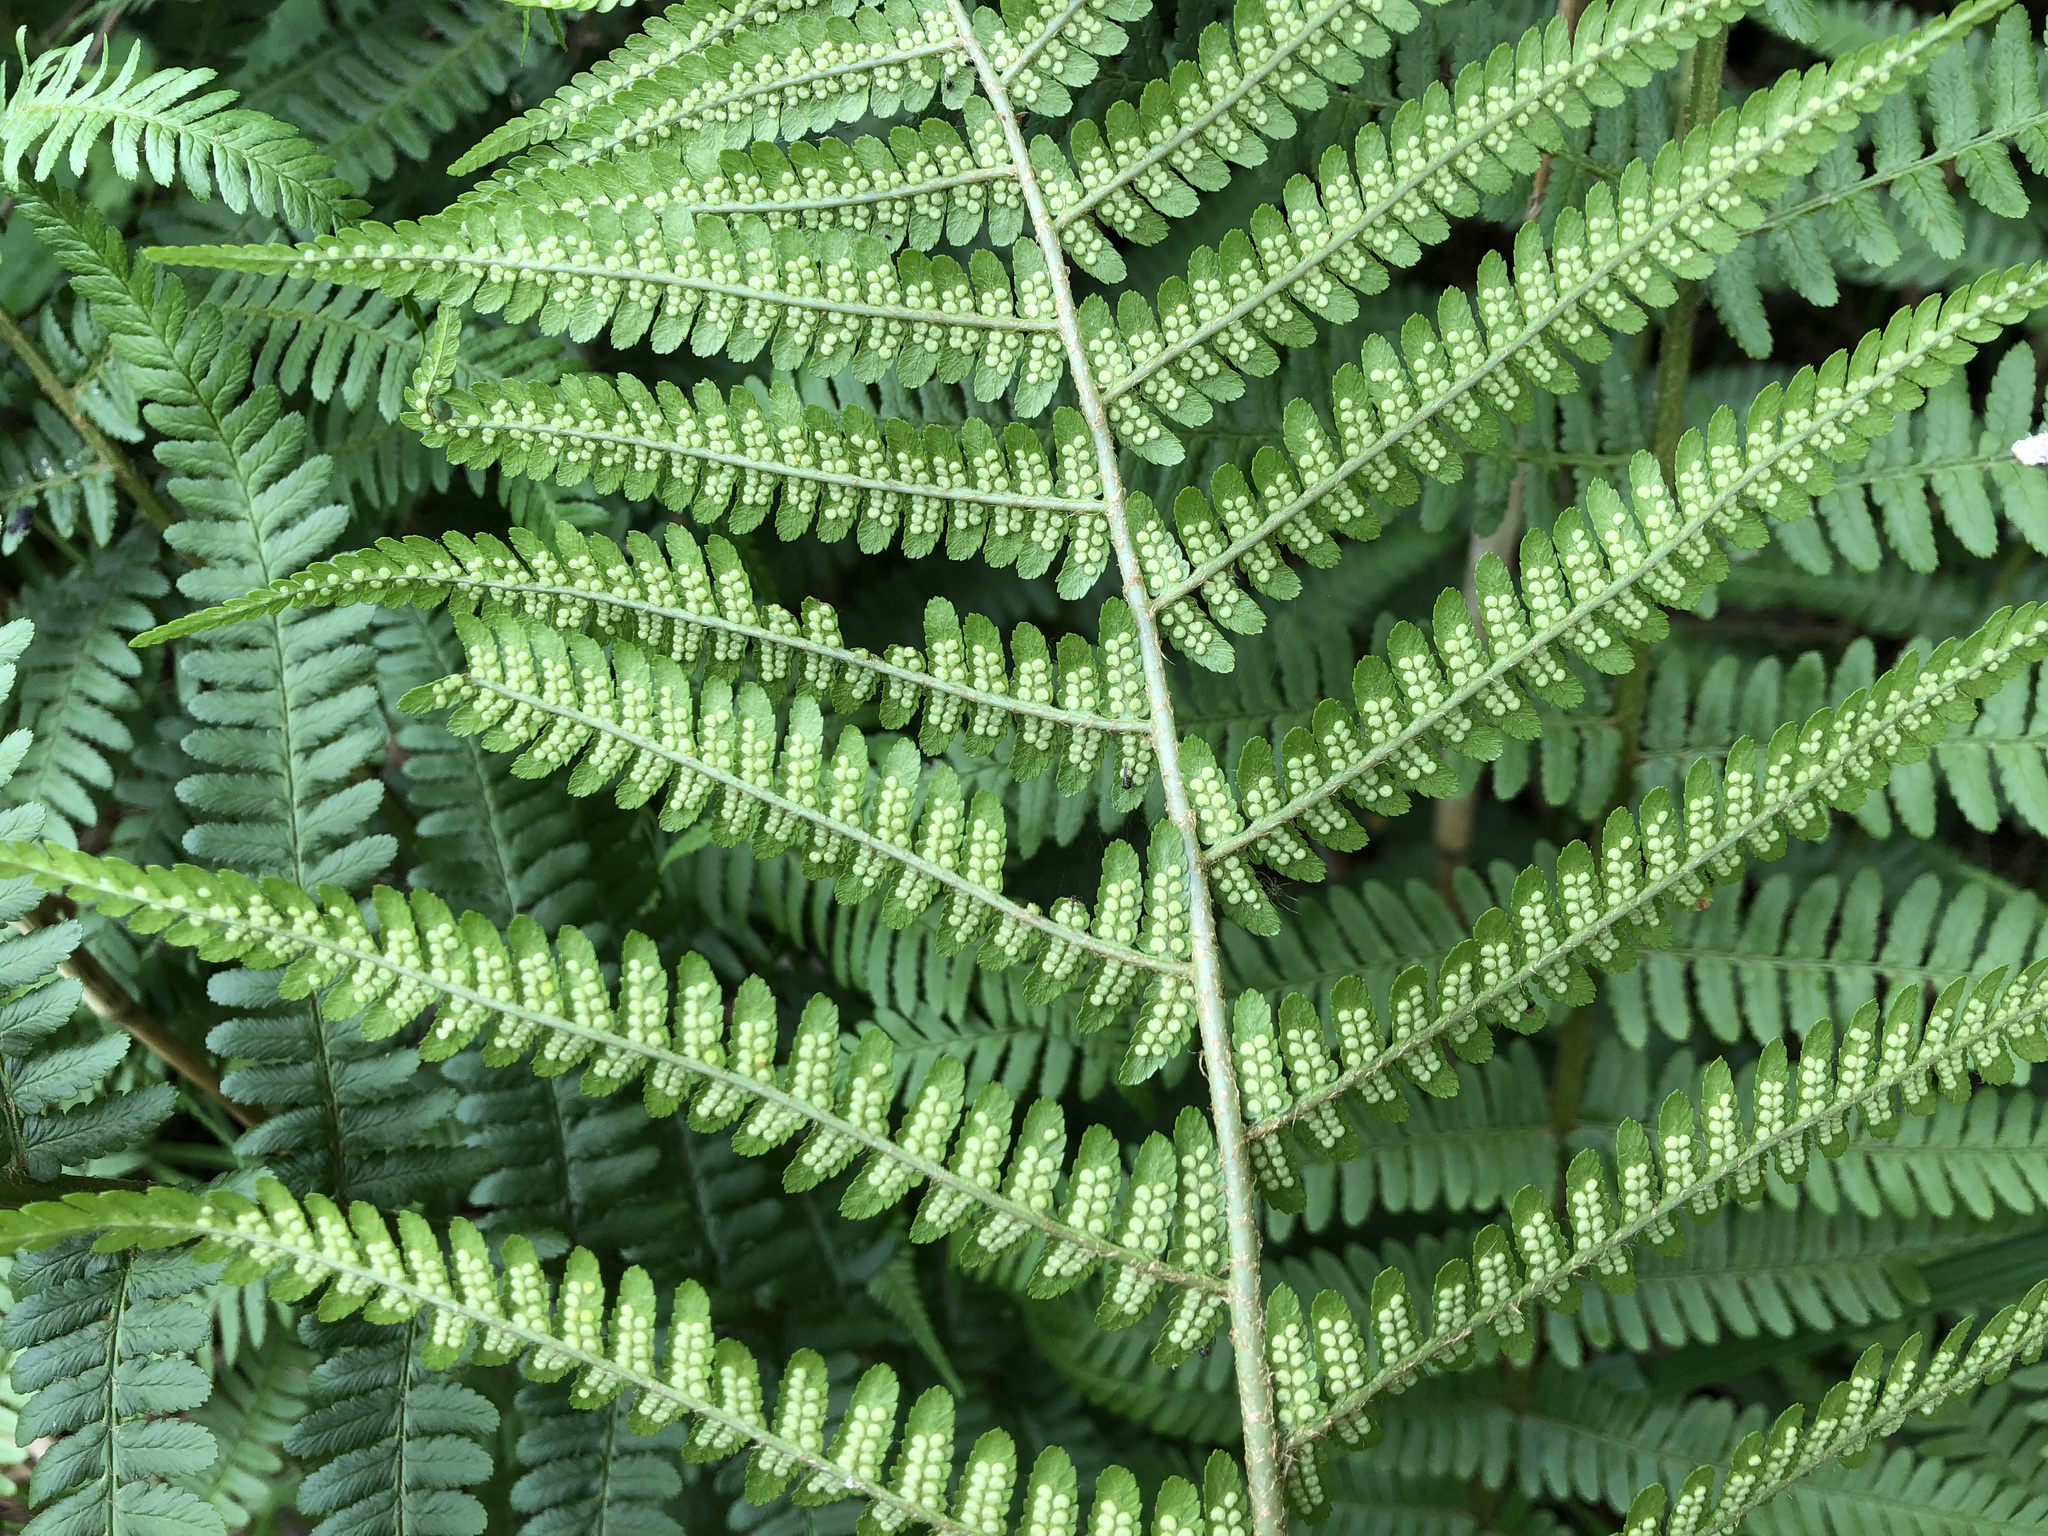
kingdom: Plantae
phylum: Tracheophyta
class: Polypodiopsida
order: Polypodiales
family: Dryopteridaceae
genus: Dryopteris
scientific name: Dryopteris filix-mas
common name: Male fern
